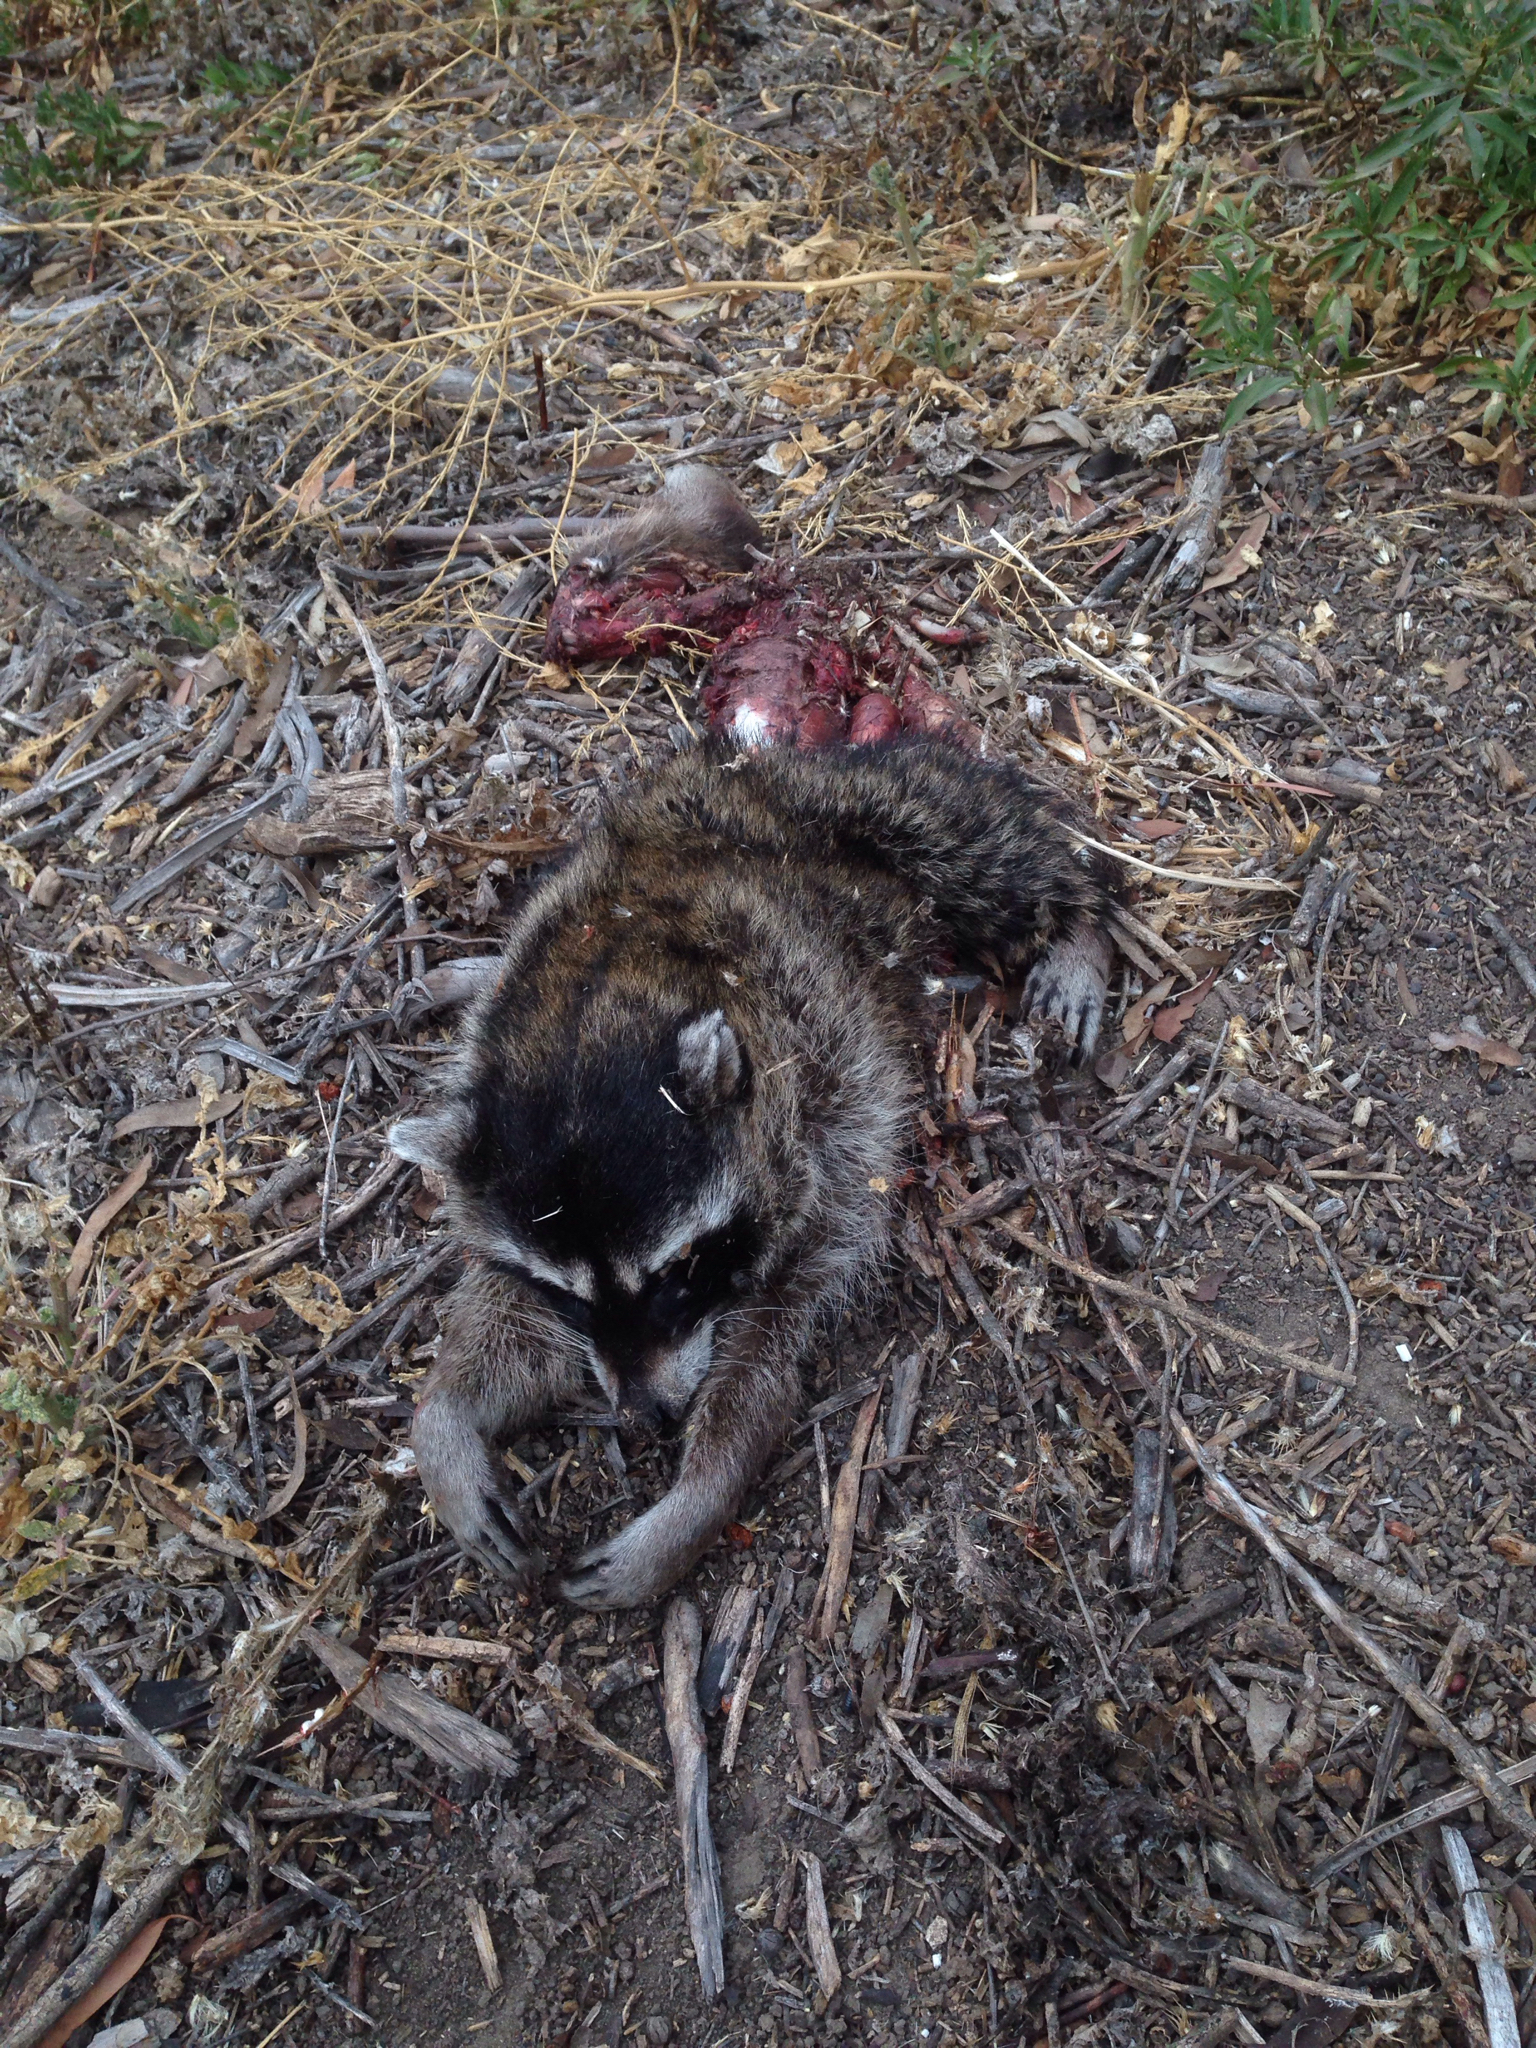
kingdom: Animalia
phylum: Chordata
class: Mammalia
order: Carnivora
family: Procyonidae
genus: Procyon
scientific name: Procyon lotor
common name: Raccoon
